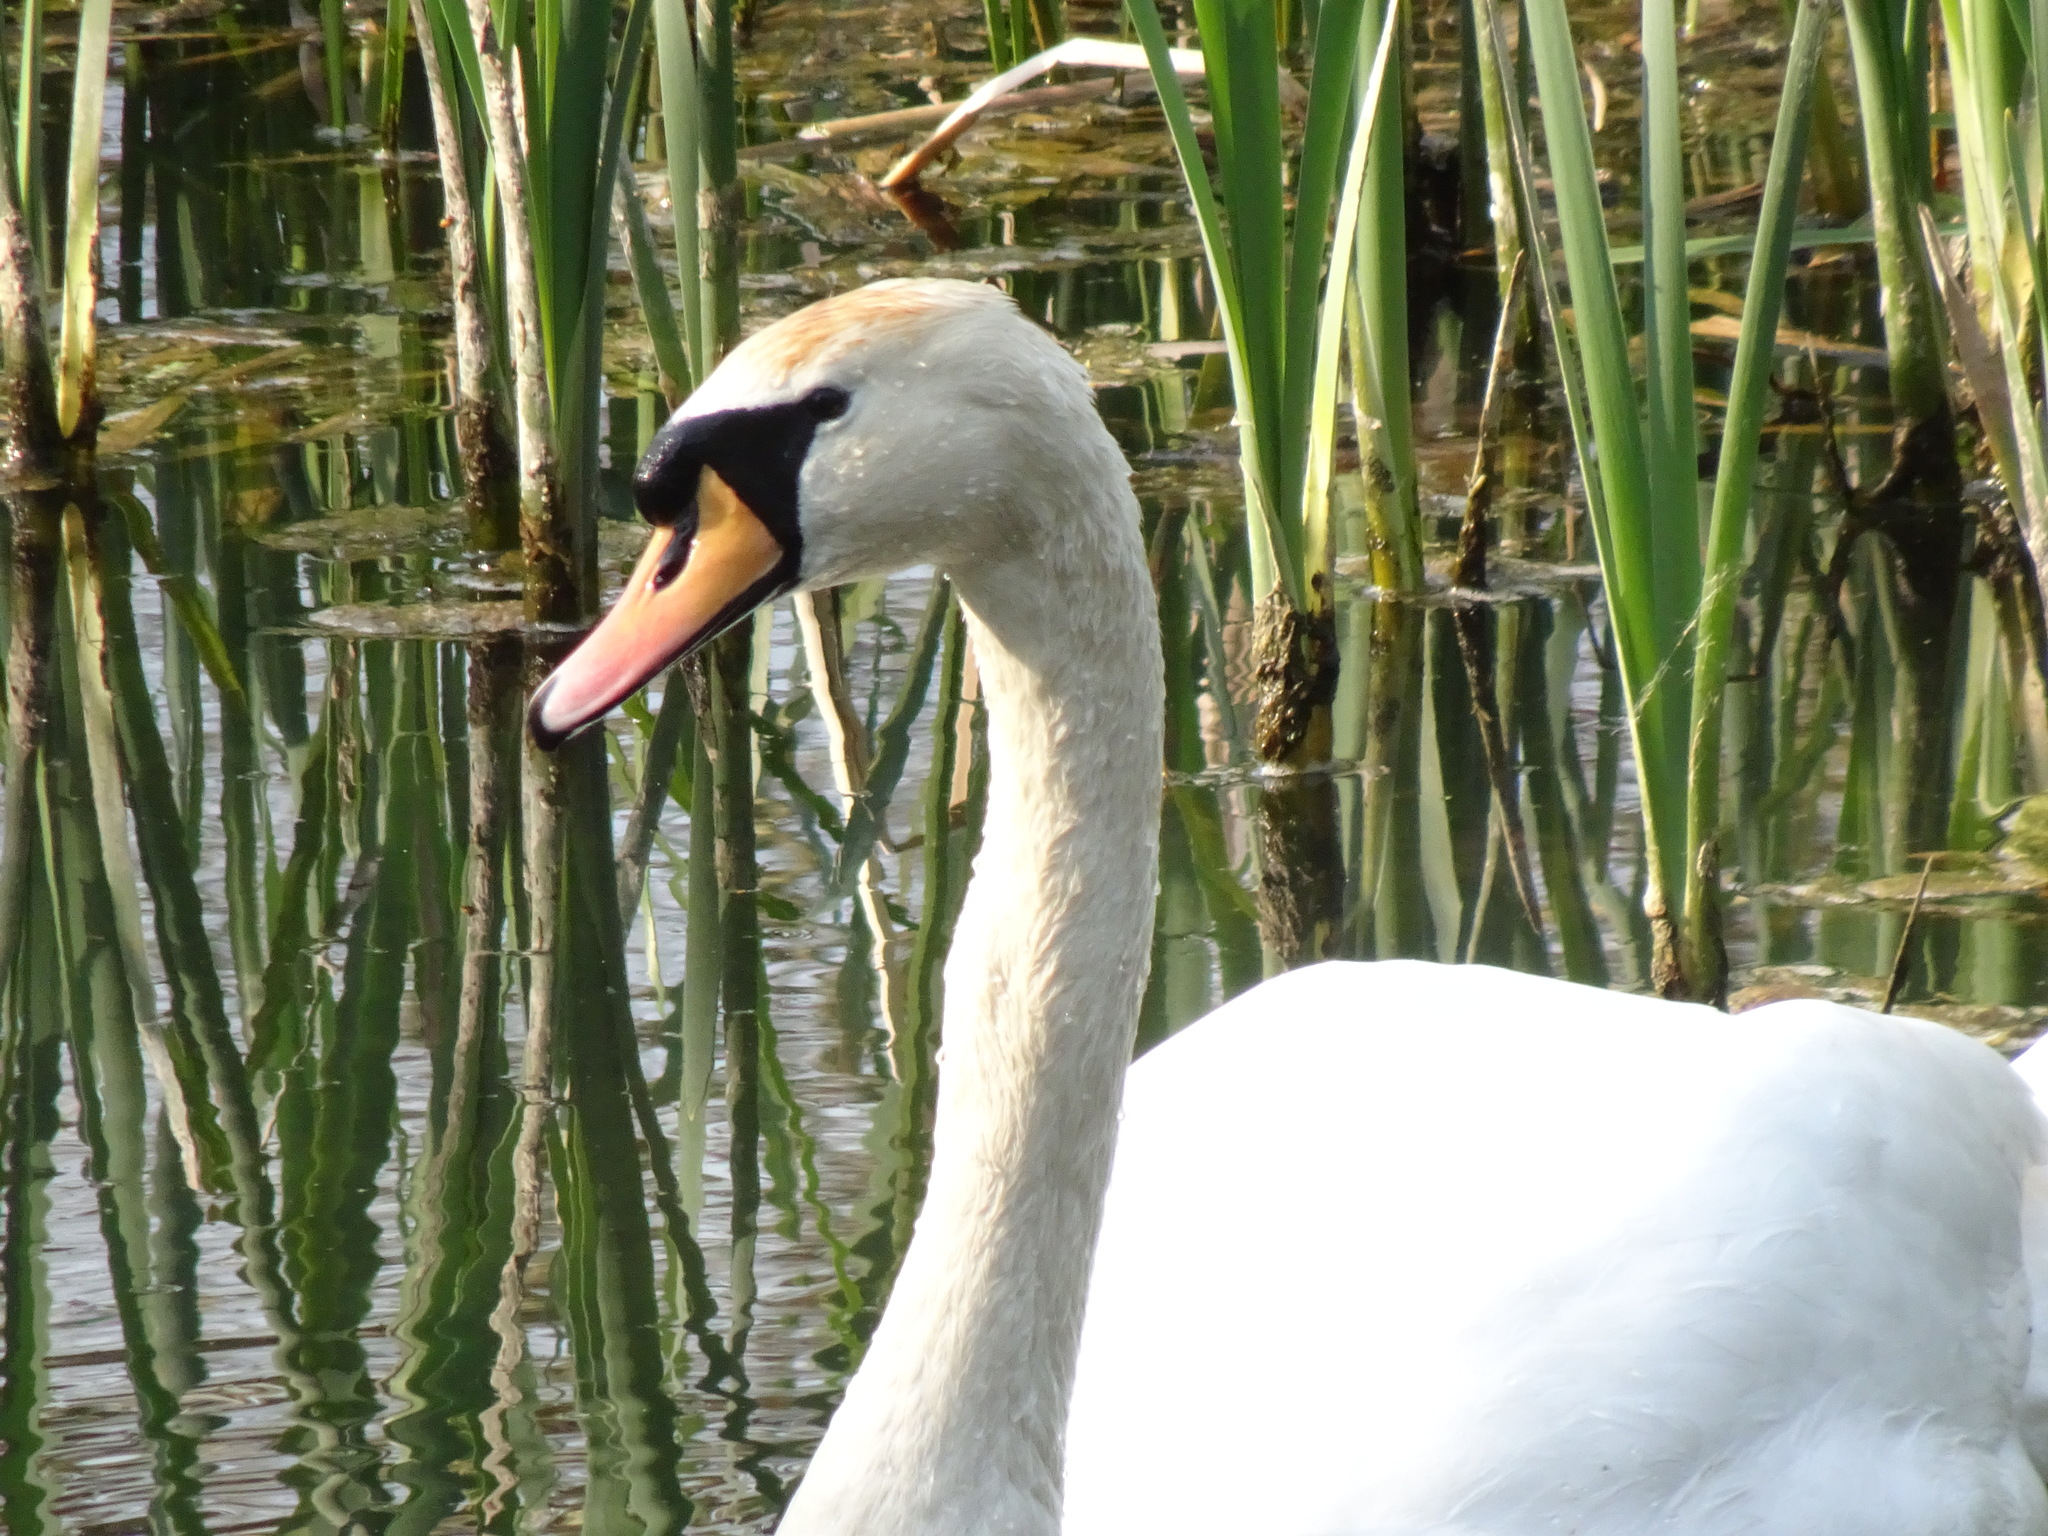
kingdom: Animalia
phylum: Chordata
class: Aves
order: Anseriformes
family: Anatidae
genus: Cygnus
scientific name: Cygnus olor
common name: Mute swan
